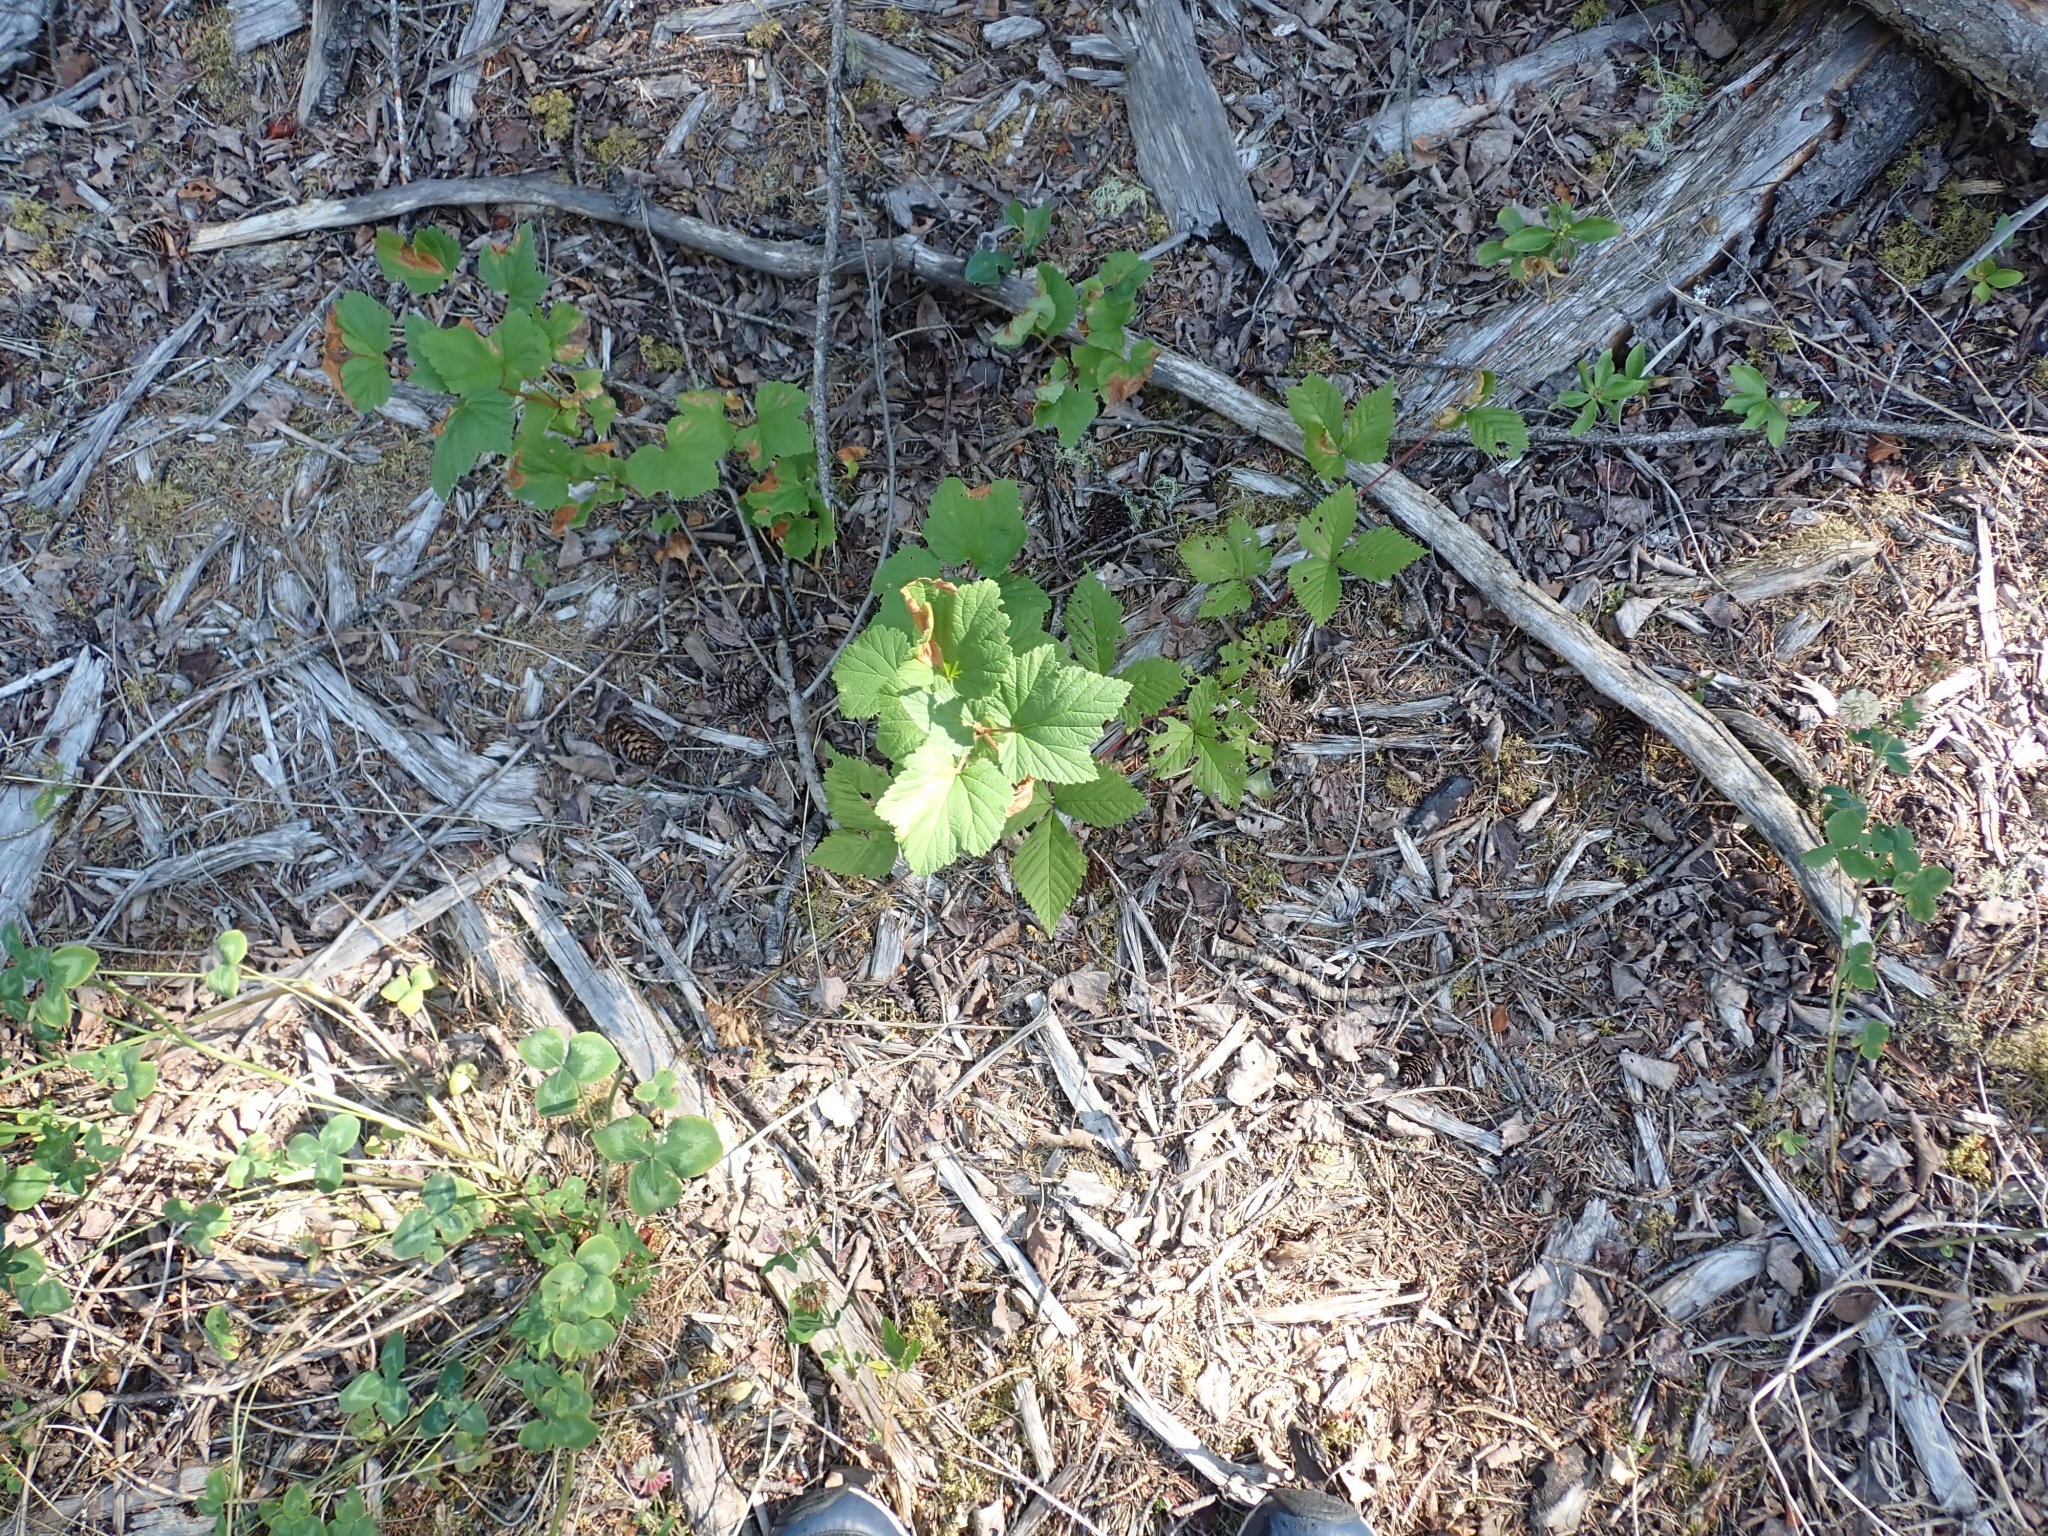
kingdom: Plantae
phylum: Tracheophyta
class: Magnoliopsida
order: Saxifragales
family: Grossulariaceae
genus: Ribes
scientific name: Ribes triste
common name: Swamp red currant
